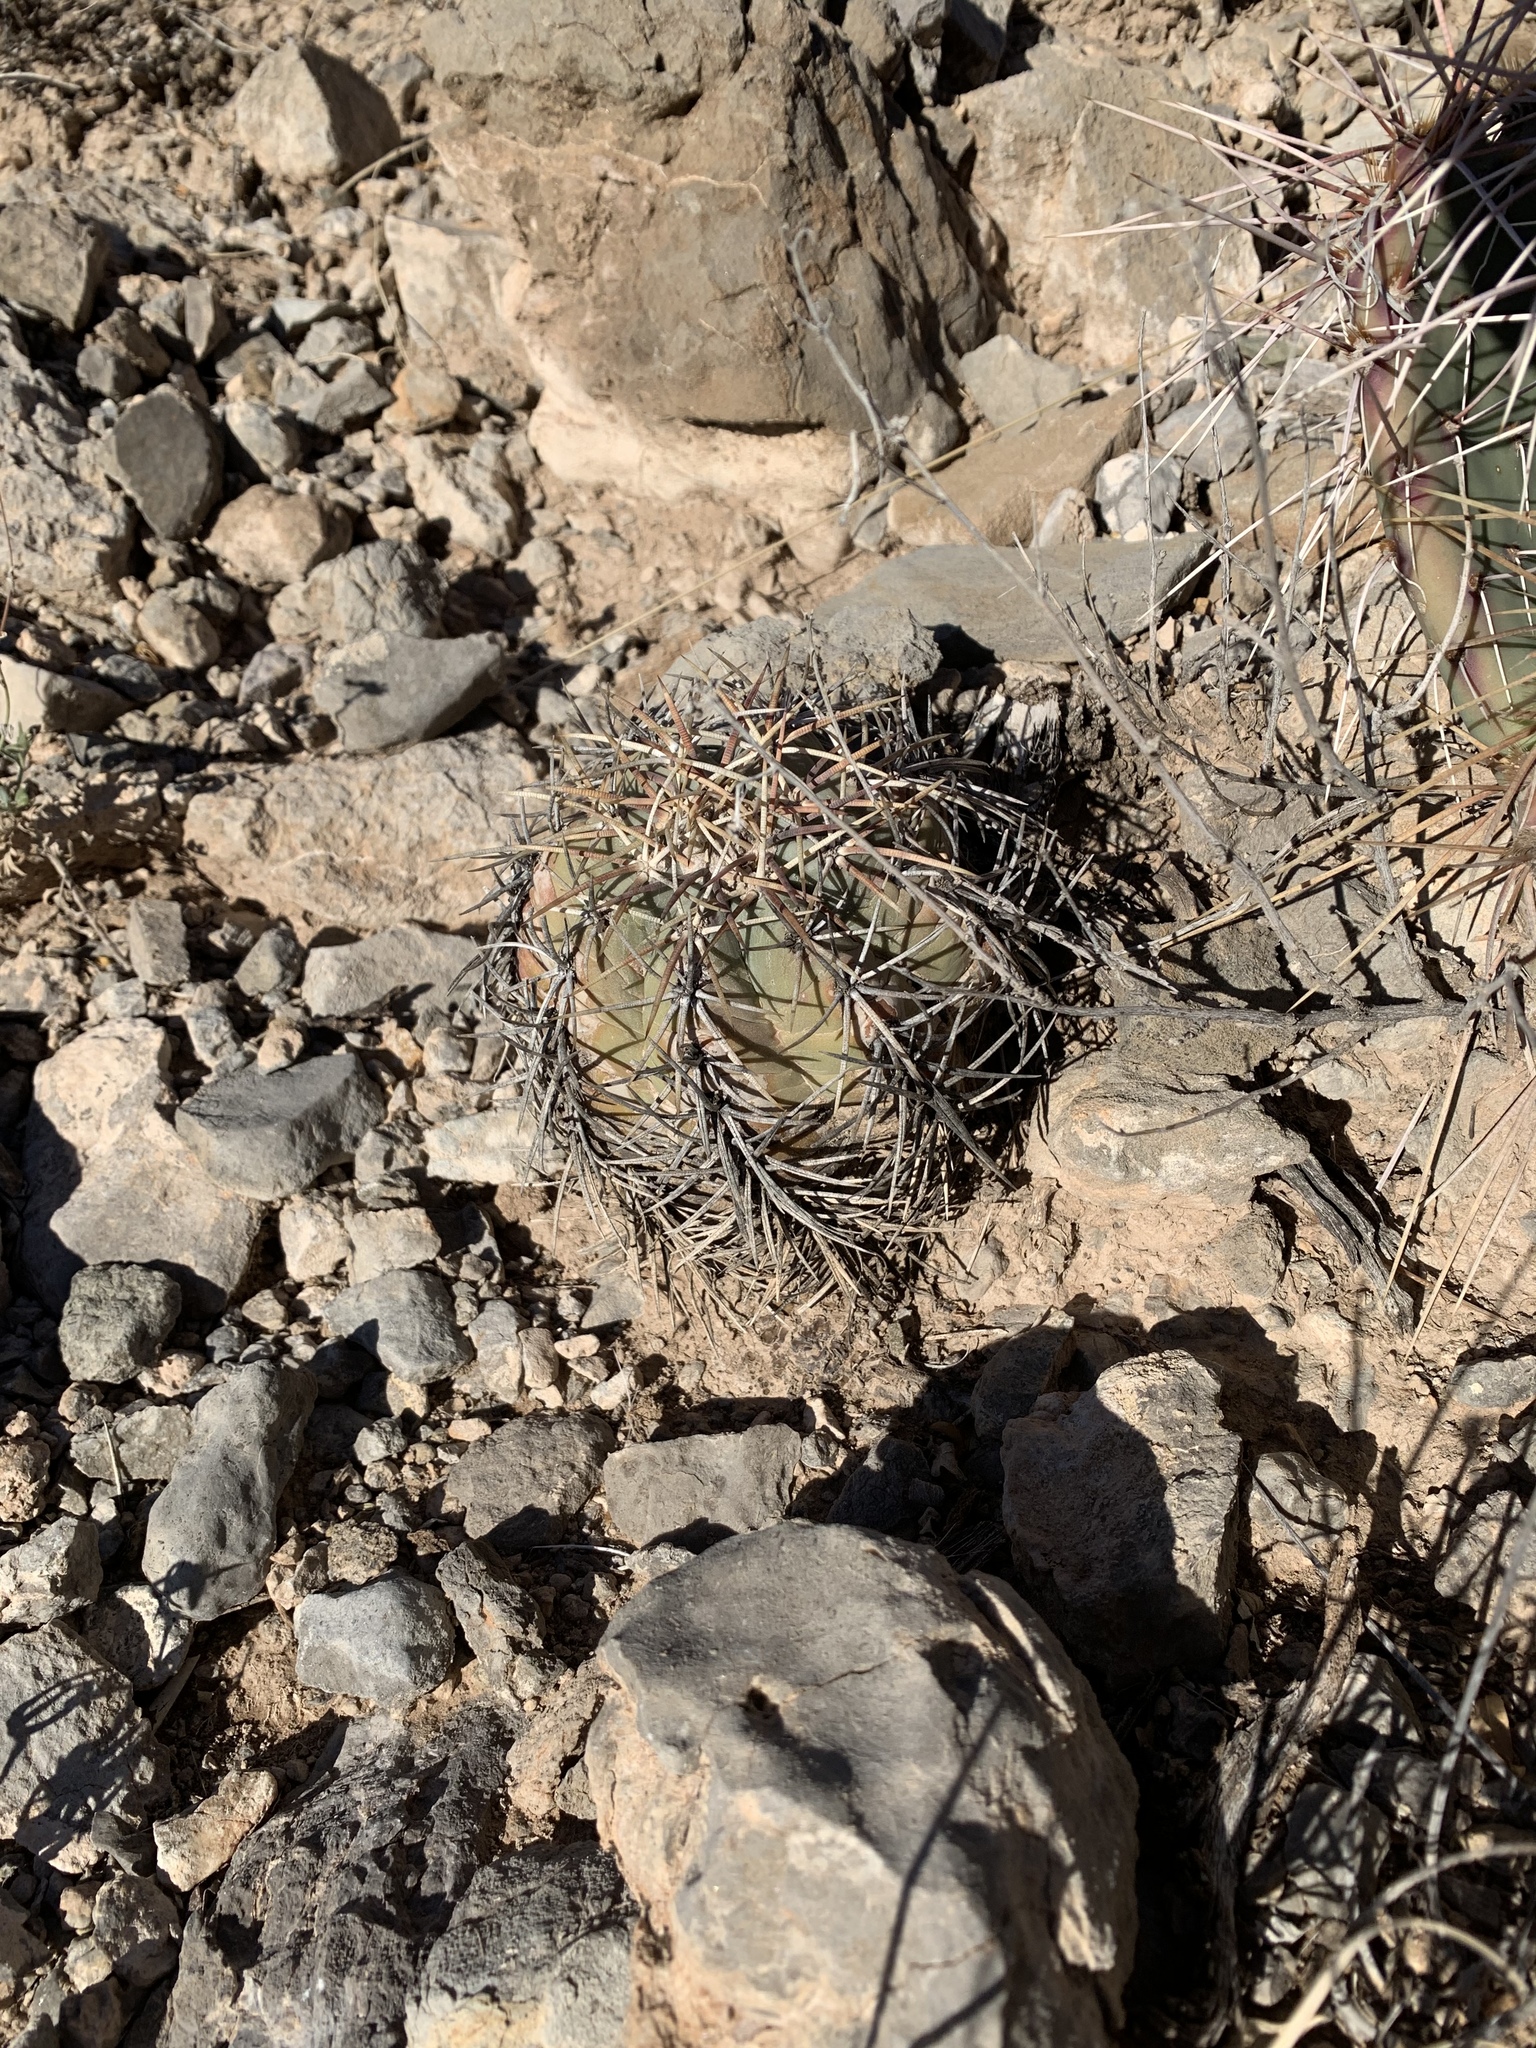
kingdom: Plantae
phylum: Tracheophyta
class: Magnoliopsida
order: Caryophyllales
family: Cactaceae
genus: Echinocactus
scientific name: Echinocactus horizonthalonius
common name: Devilshead
